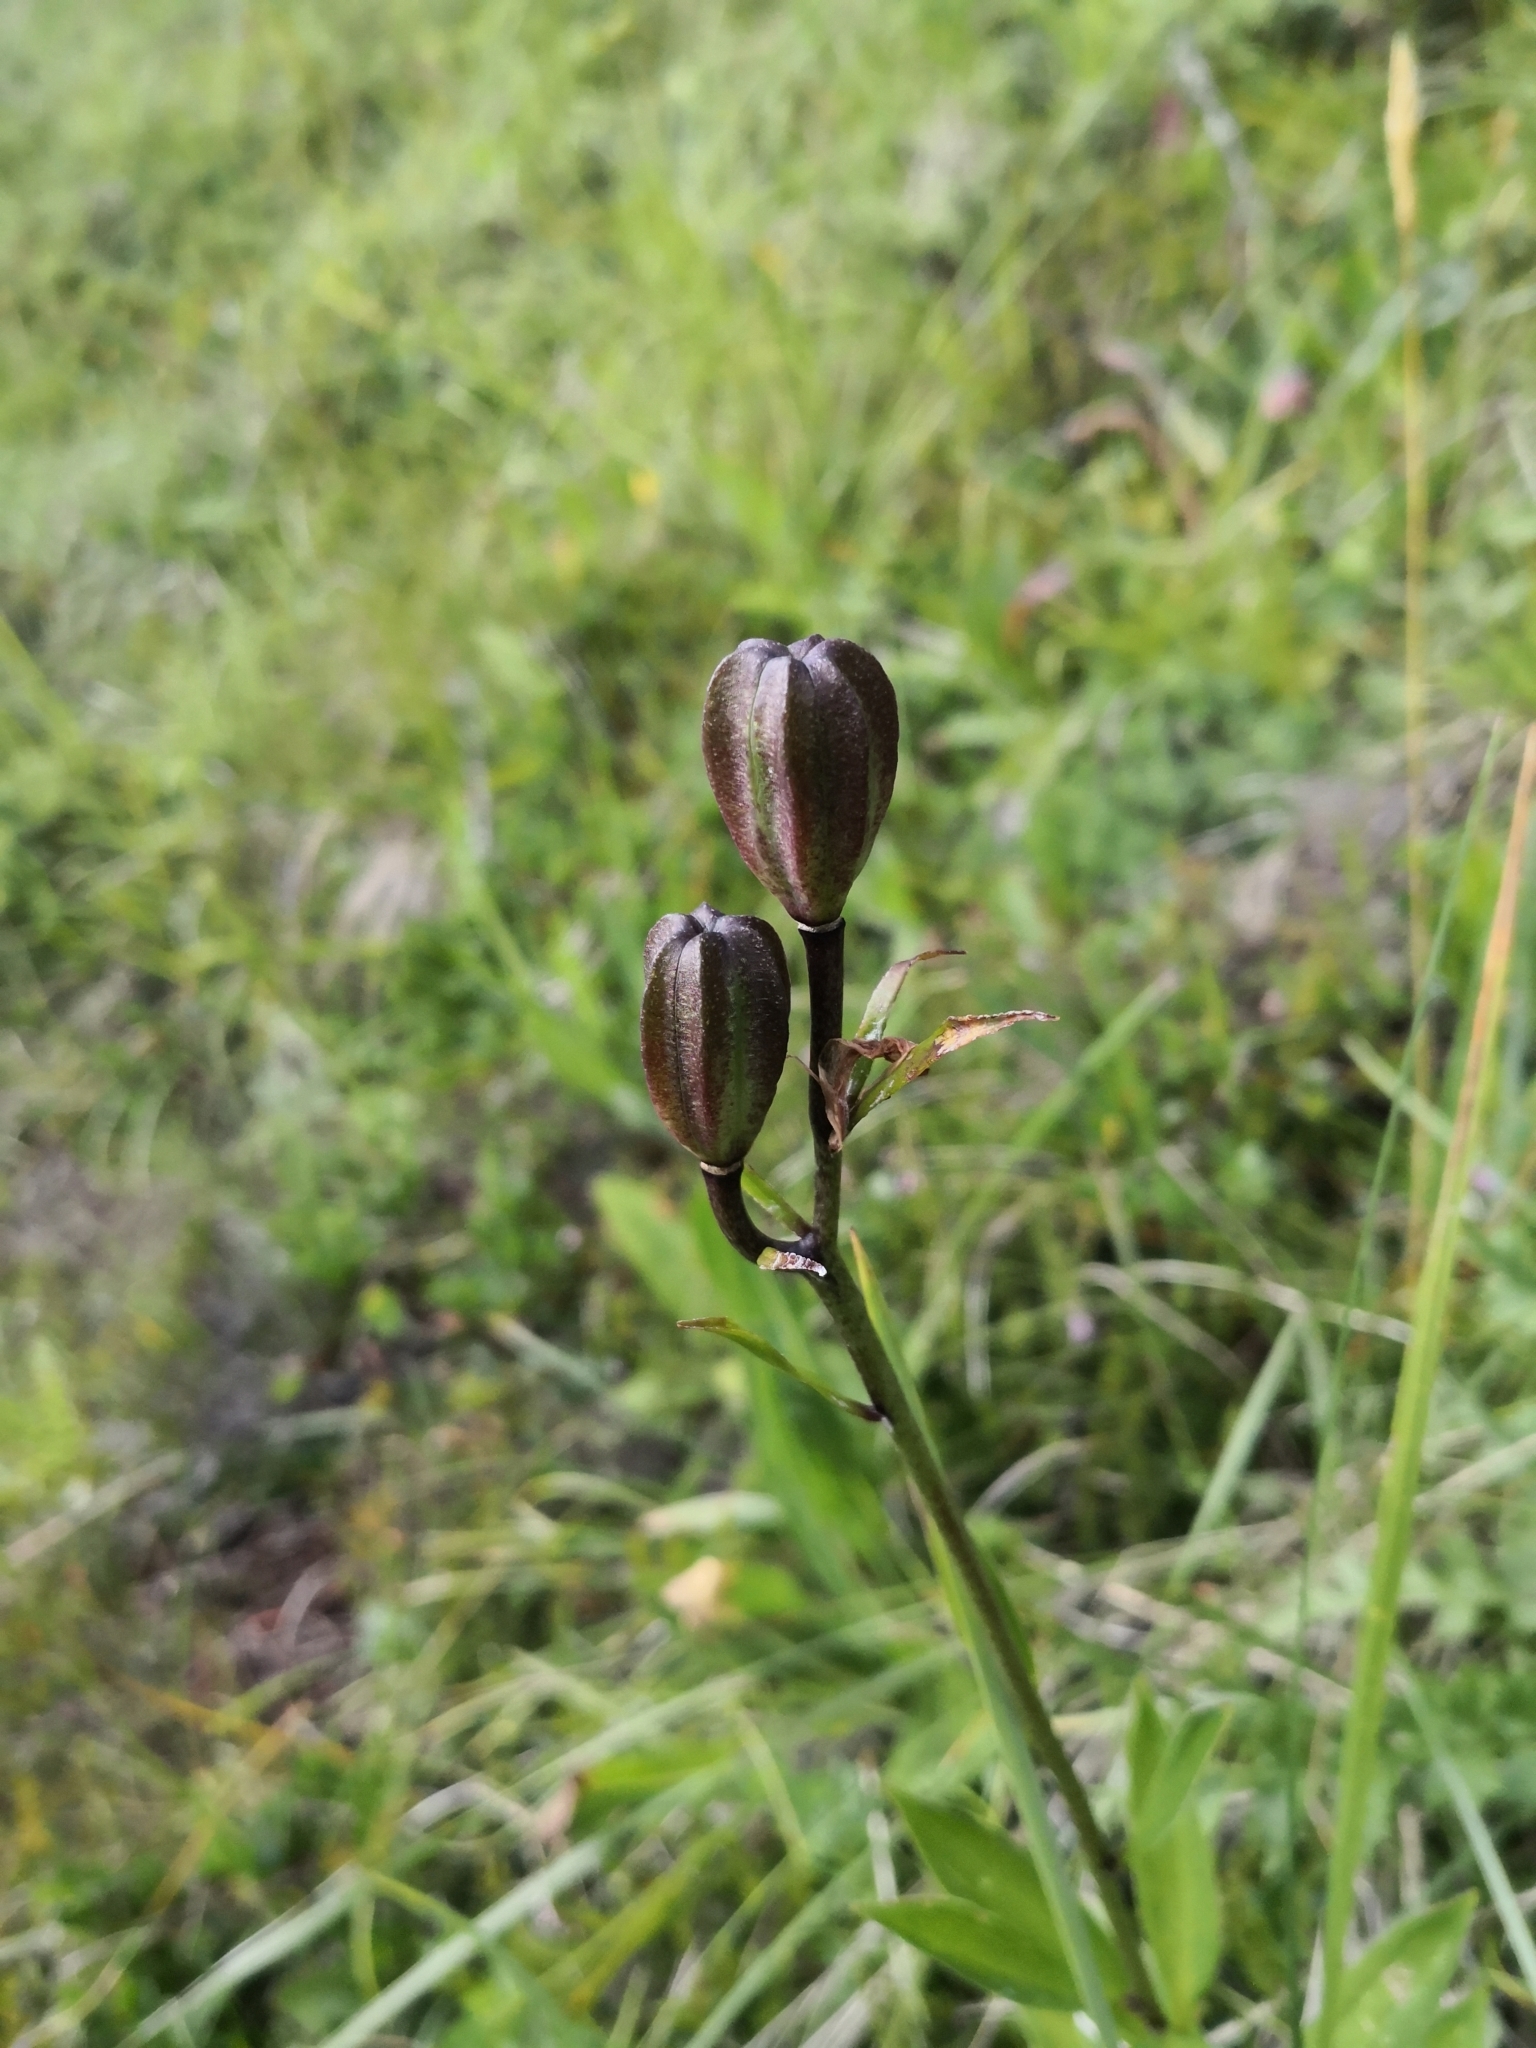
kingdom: Plantae
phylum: Tracheophyta
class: Liliopsida
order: Liliales
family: Liliaceae
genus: Lilium
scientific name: Lilium martagon
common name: Martagon lily
